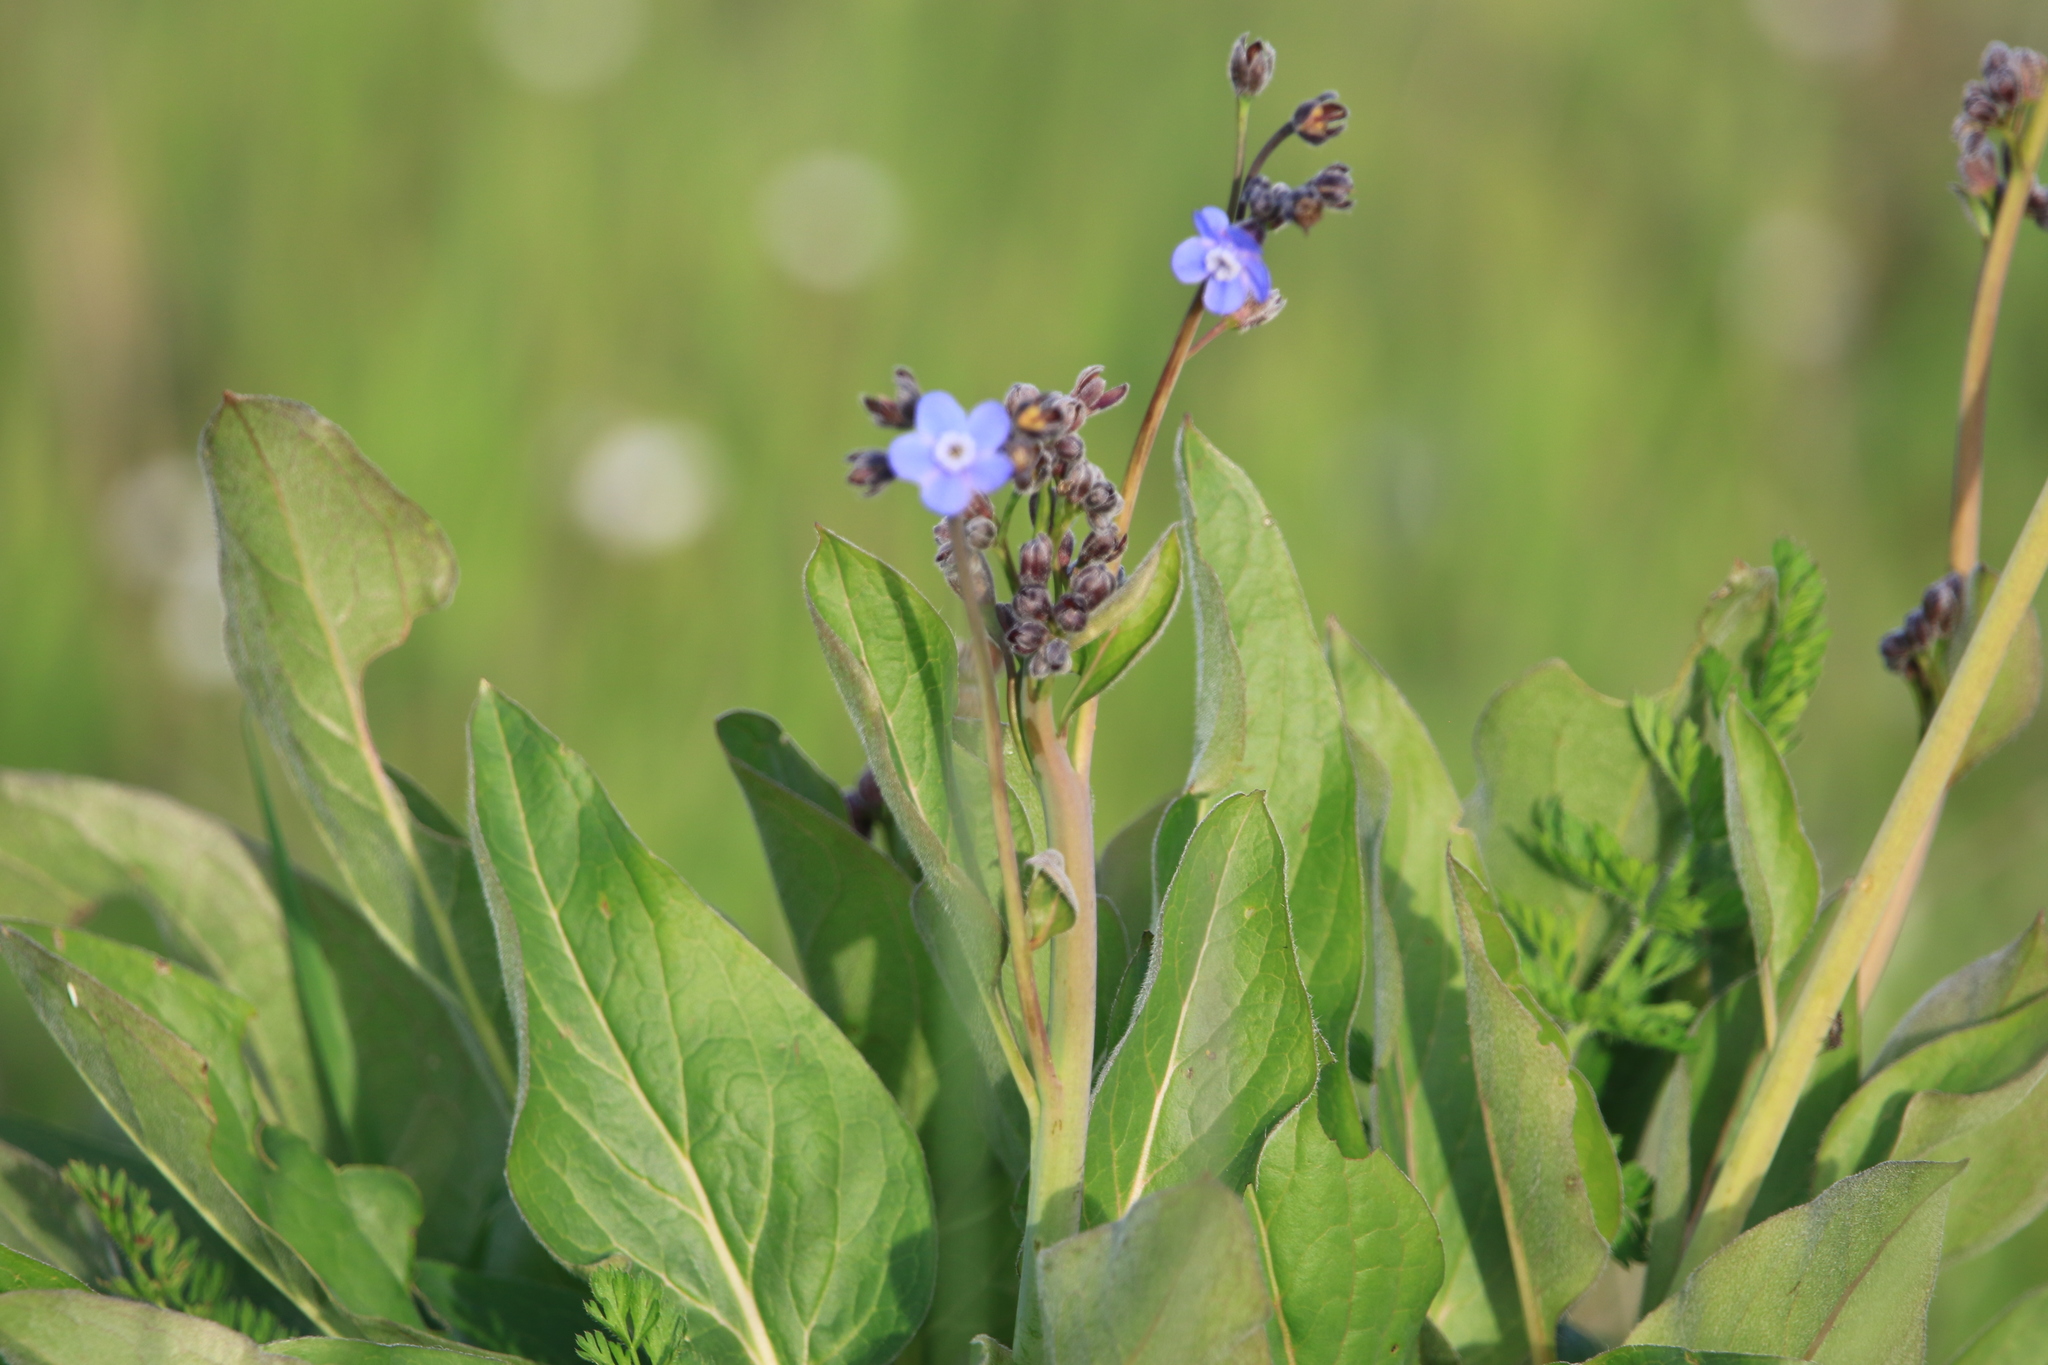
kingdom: Plantae
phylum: Tracheophyta
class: Magnoliopsida
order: Boraginales
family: Boraginaceae
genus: Adelinia
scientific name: Adelinia grande
